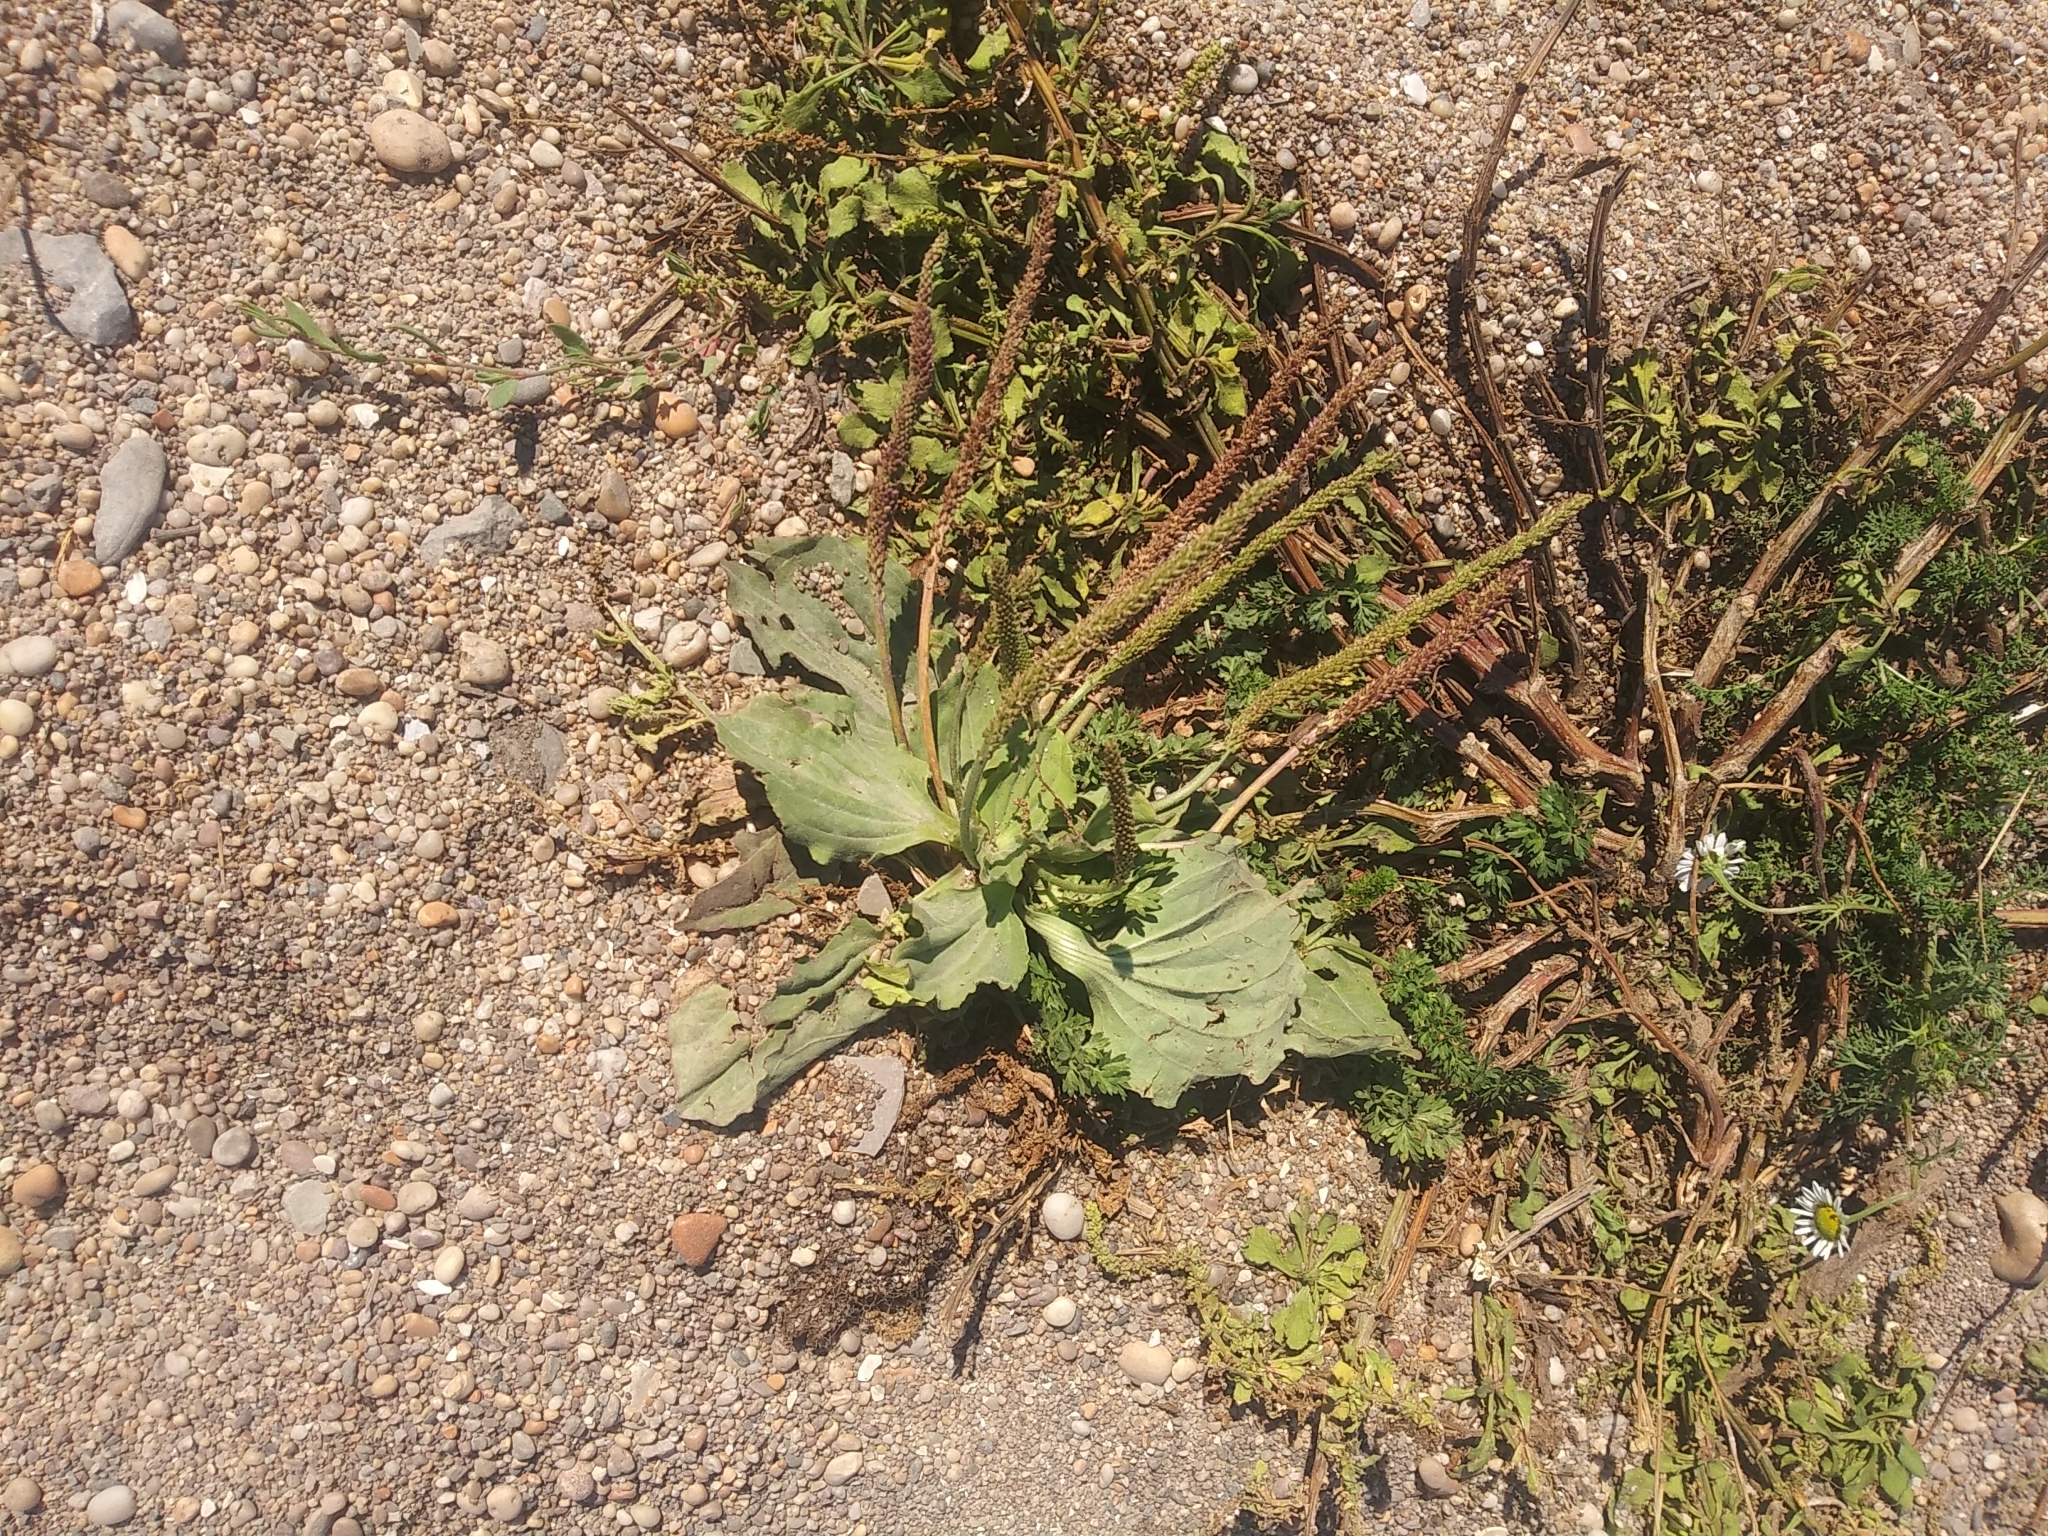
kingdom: Plantae
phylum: Tracheophyta
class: Magnoliopsida
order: Lamiales
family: Plantaginaceae
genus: Plantago
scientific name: Plantago major
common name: Common plantain
